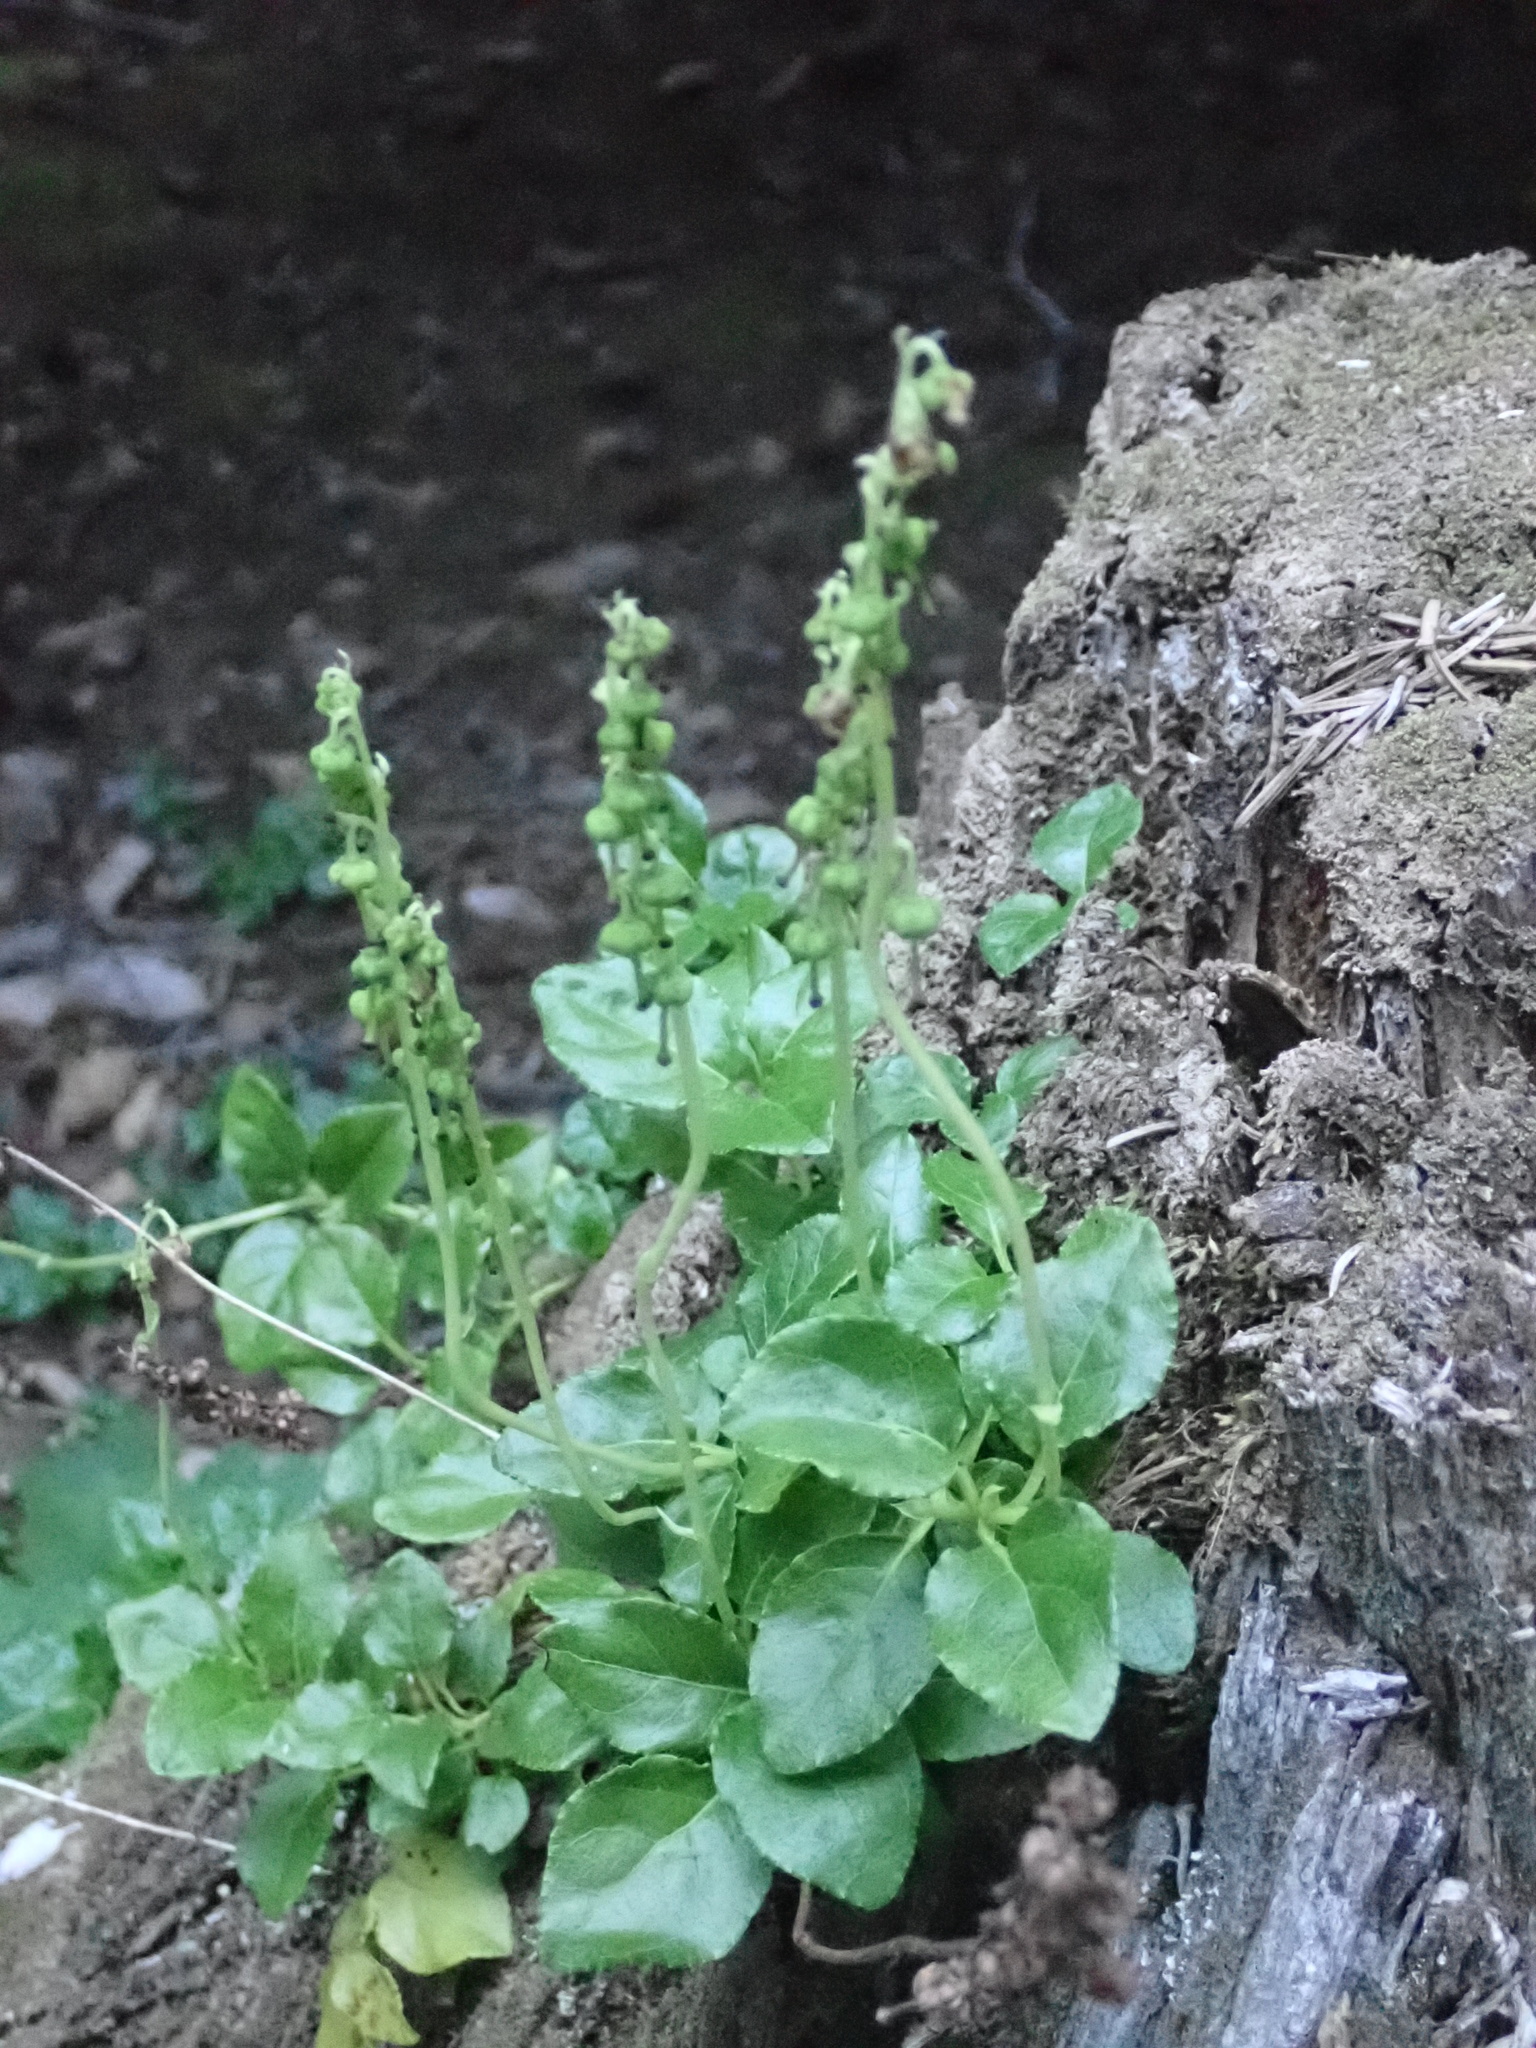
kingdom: Plantae
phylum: Tracheophyta
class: Magnoliopsida
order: Ericales
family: Ericaceae
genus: Orthilia
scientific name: Orthilia secunda
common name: One-sided orthilia
